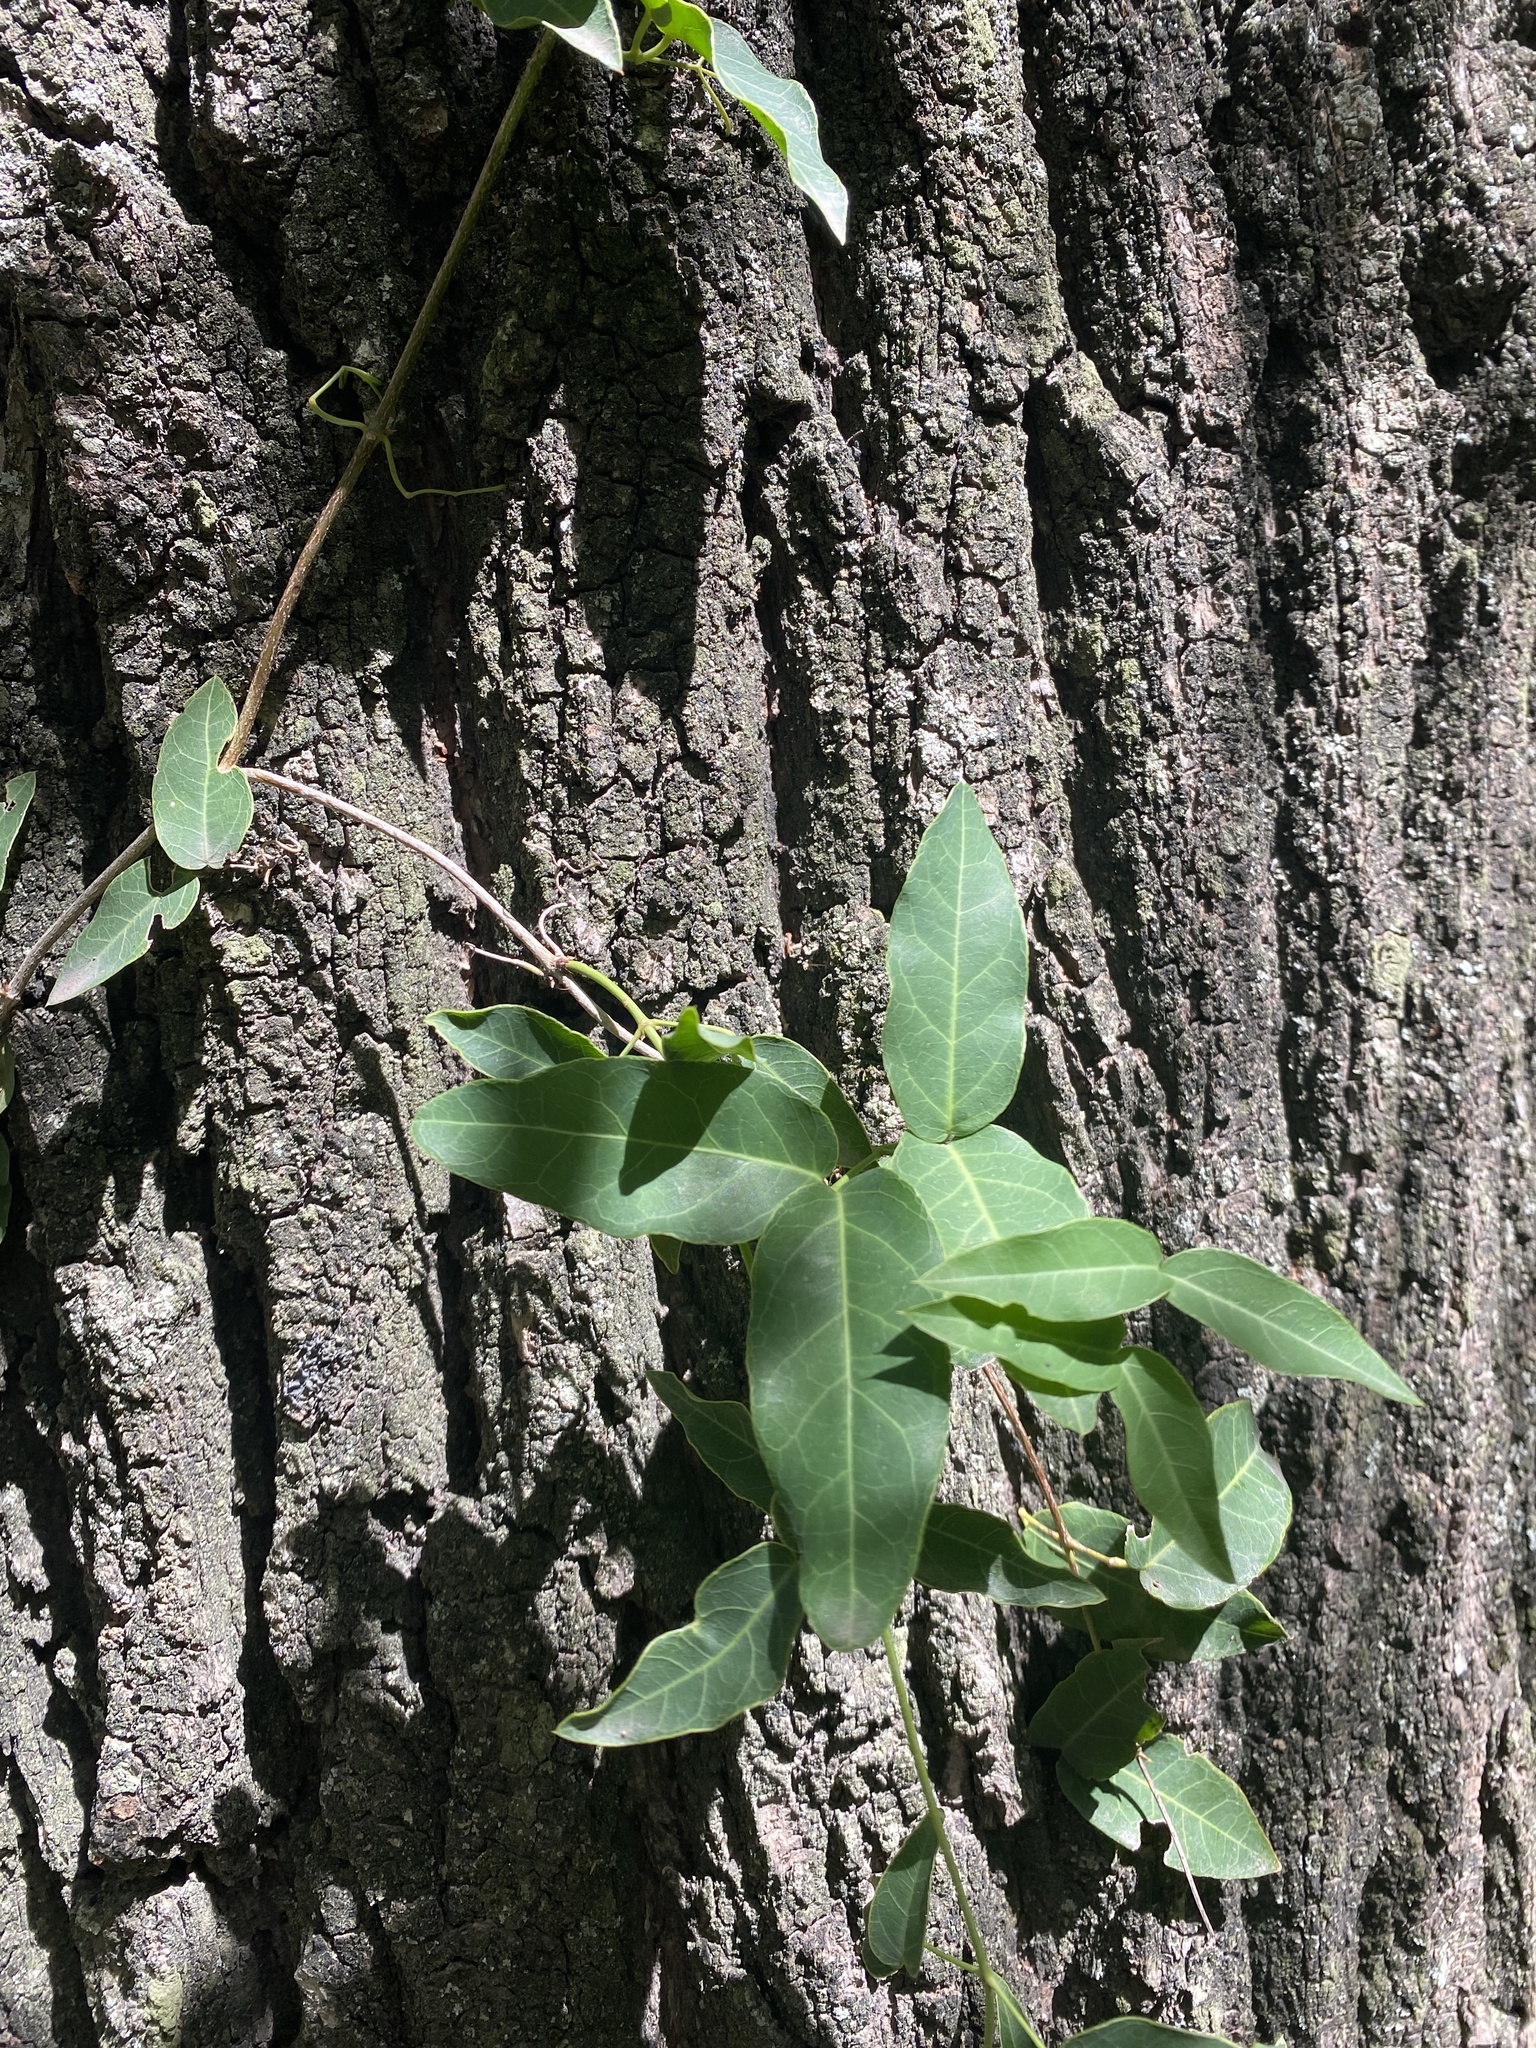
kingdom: Plantae
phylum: Tracheophyta
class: Magnoliopsida
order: Lamiales
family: Bignoniaceae
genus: Dolichandra
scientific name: Dolichandra cynanchoides
